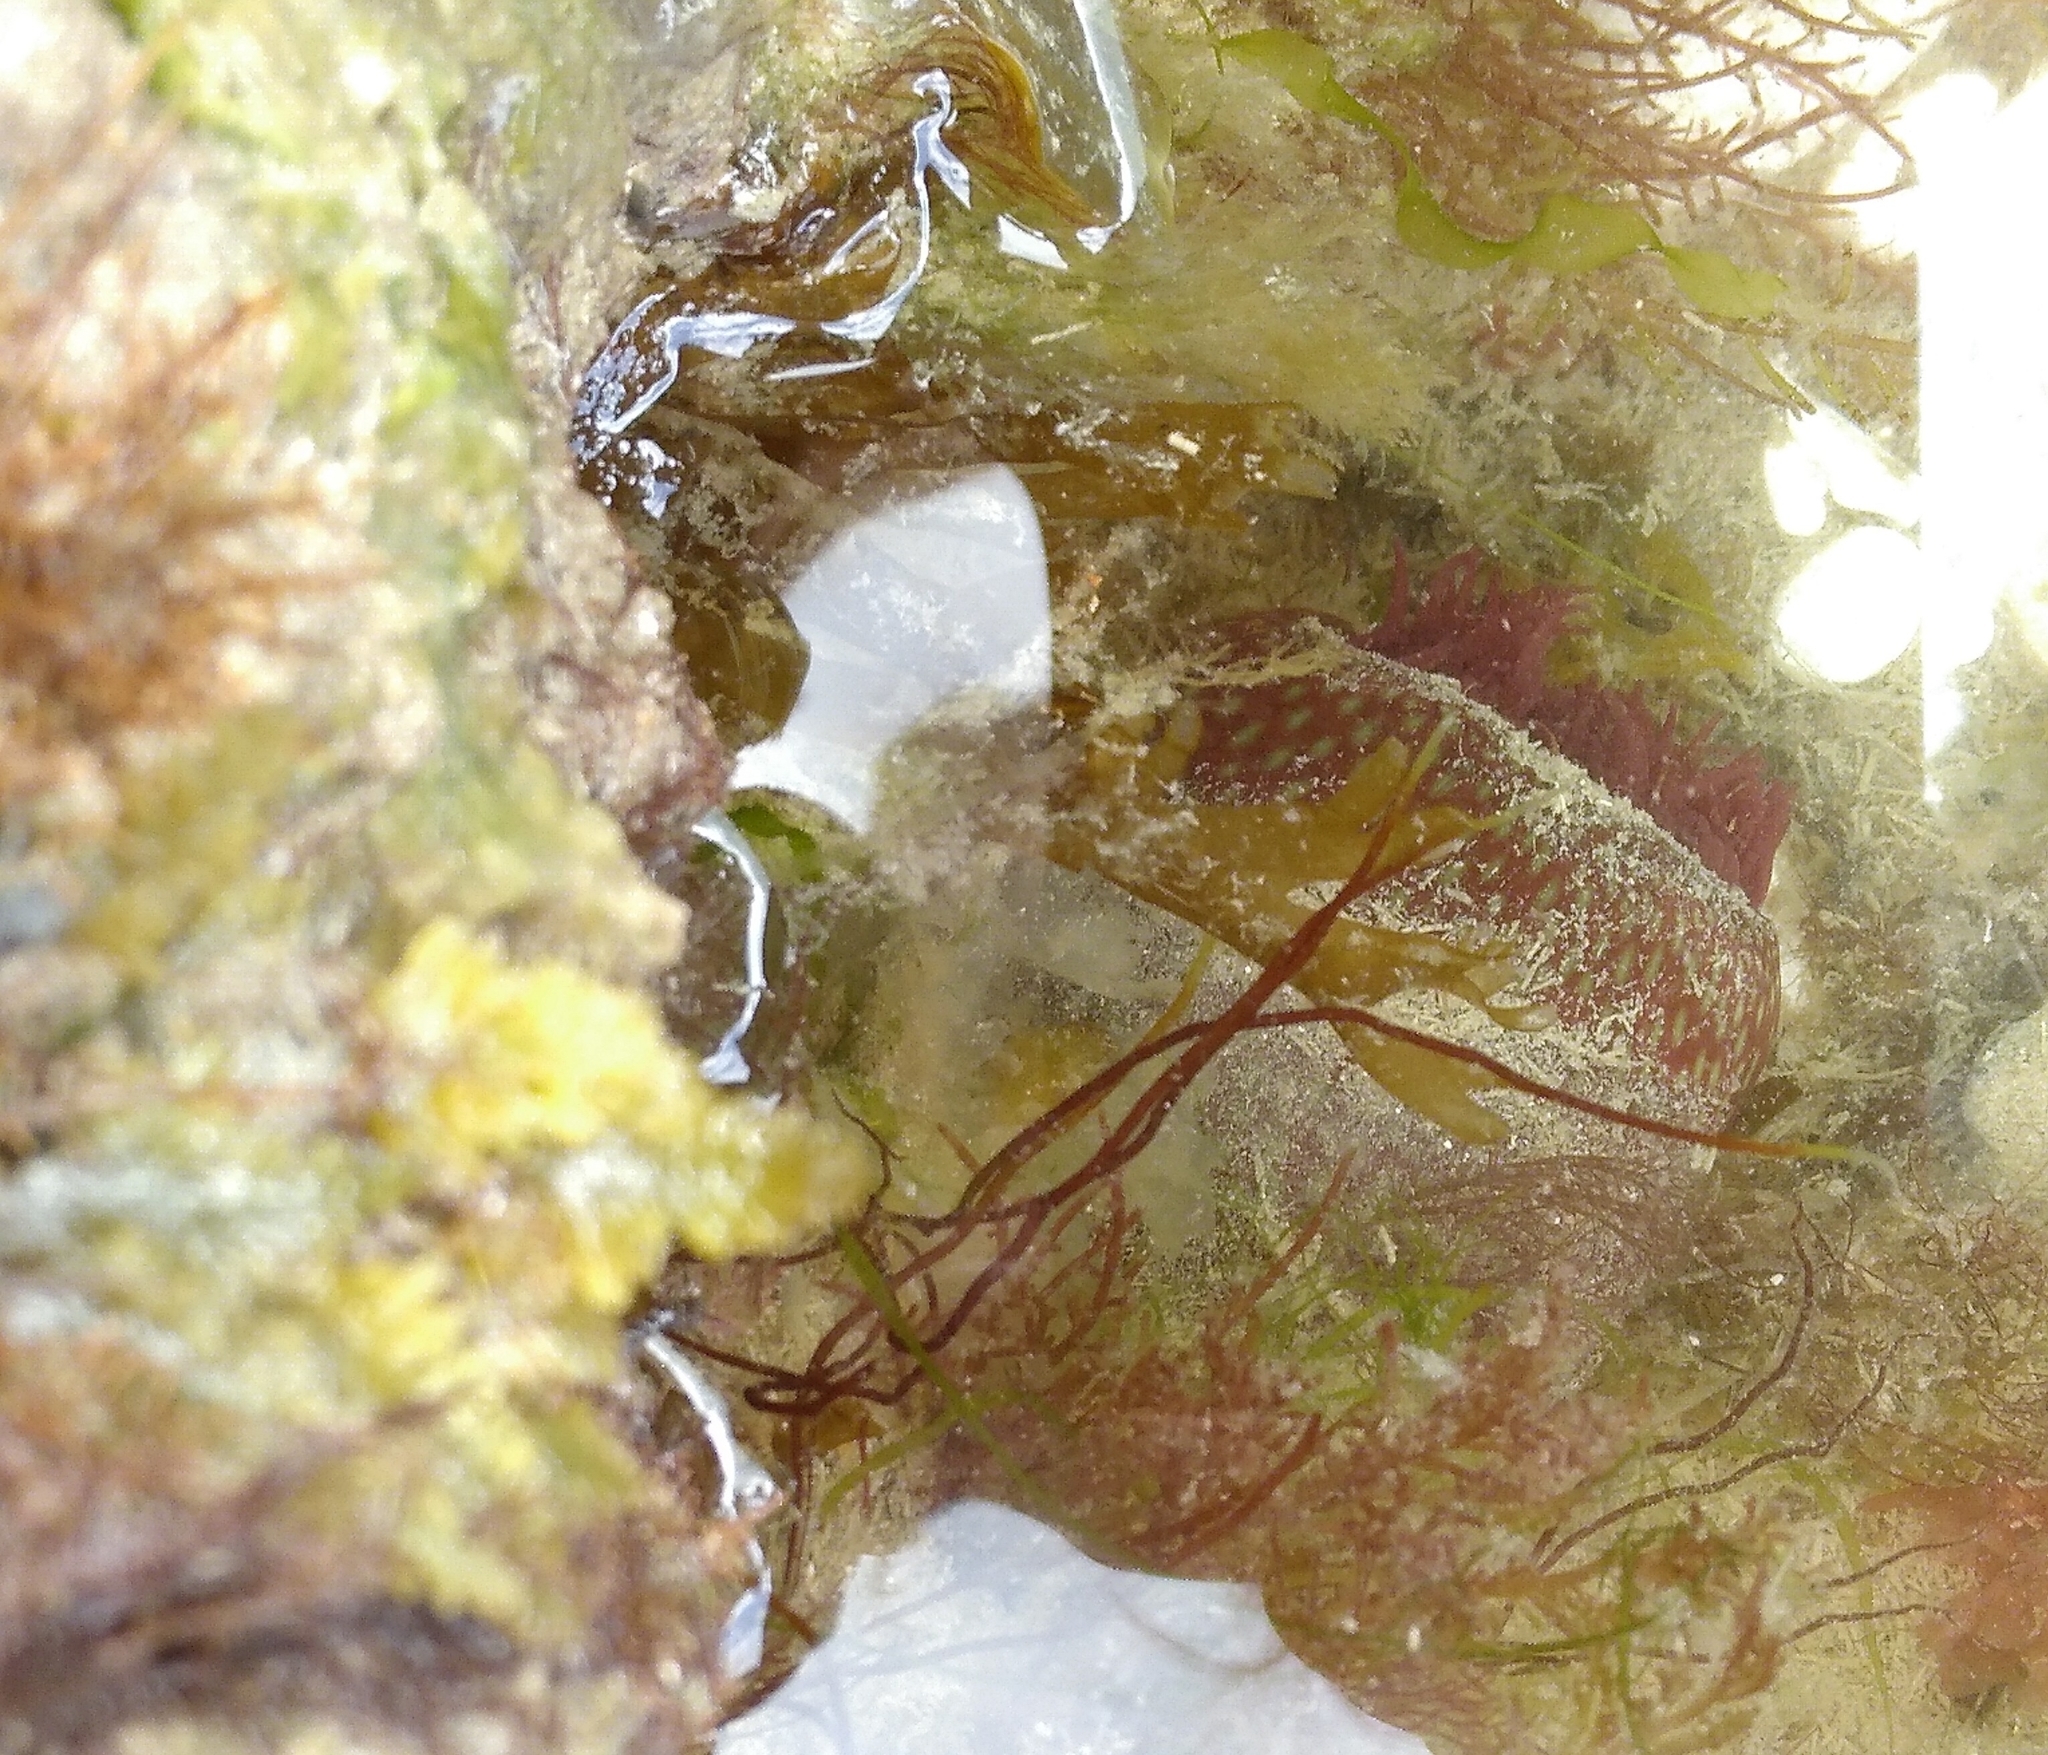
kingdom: Animalia
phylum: Cnidaria
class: Anthozoa
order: Actiniaria
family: Actiniidae
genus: Actinia
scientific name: Actinia fragacea
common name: Strawberry anemone
